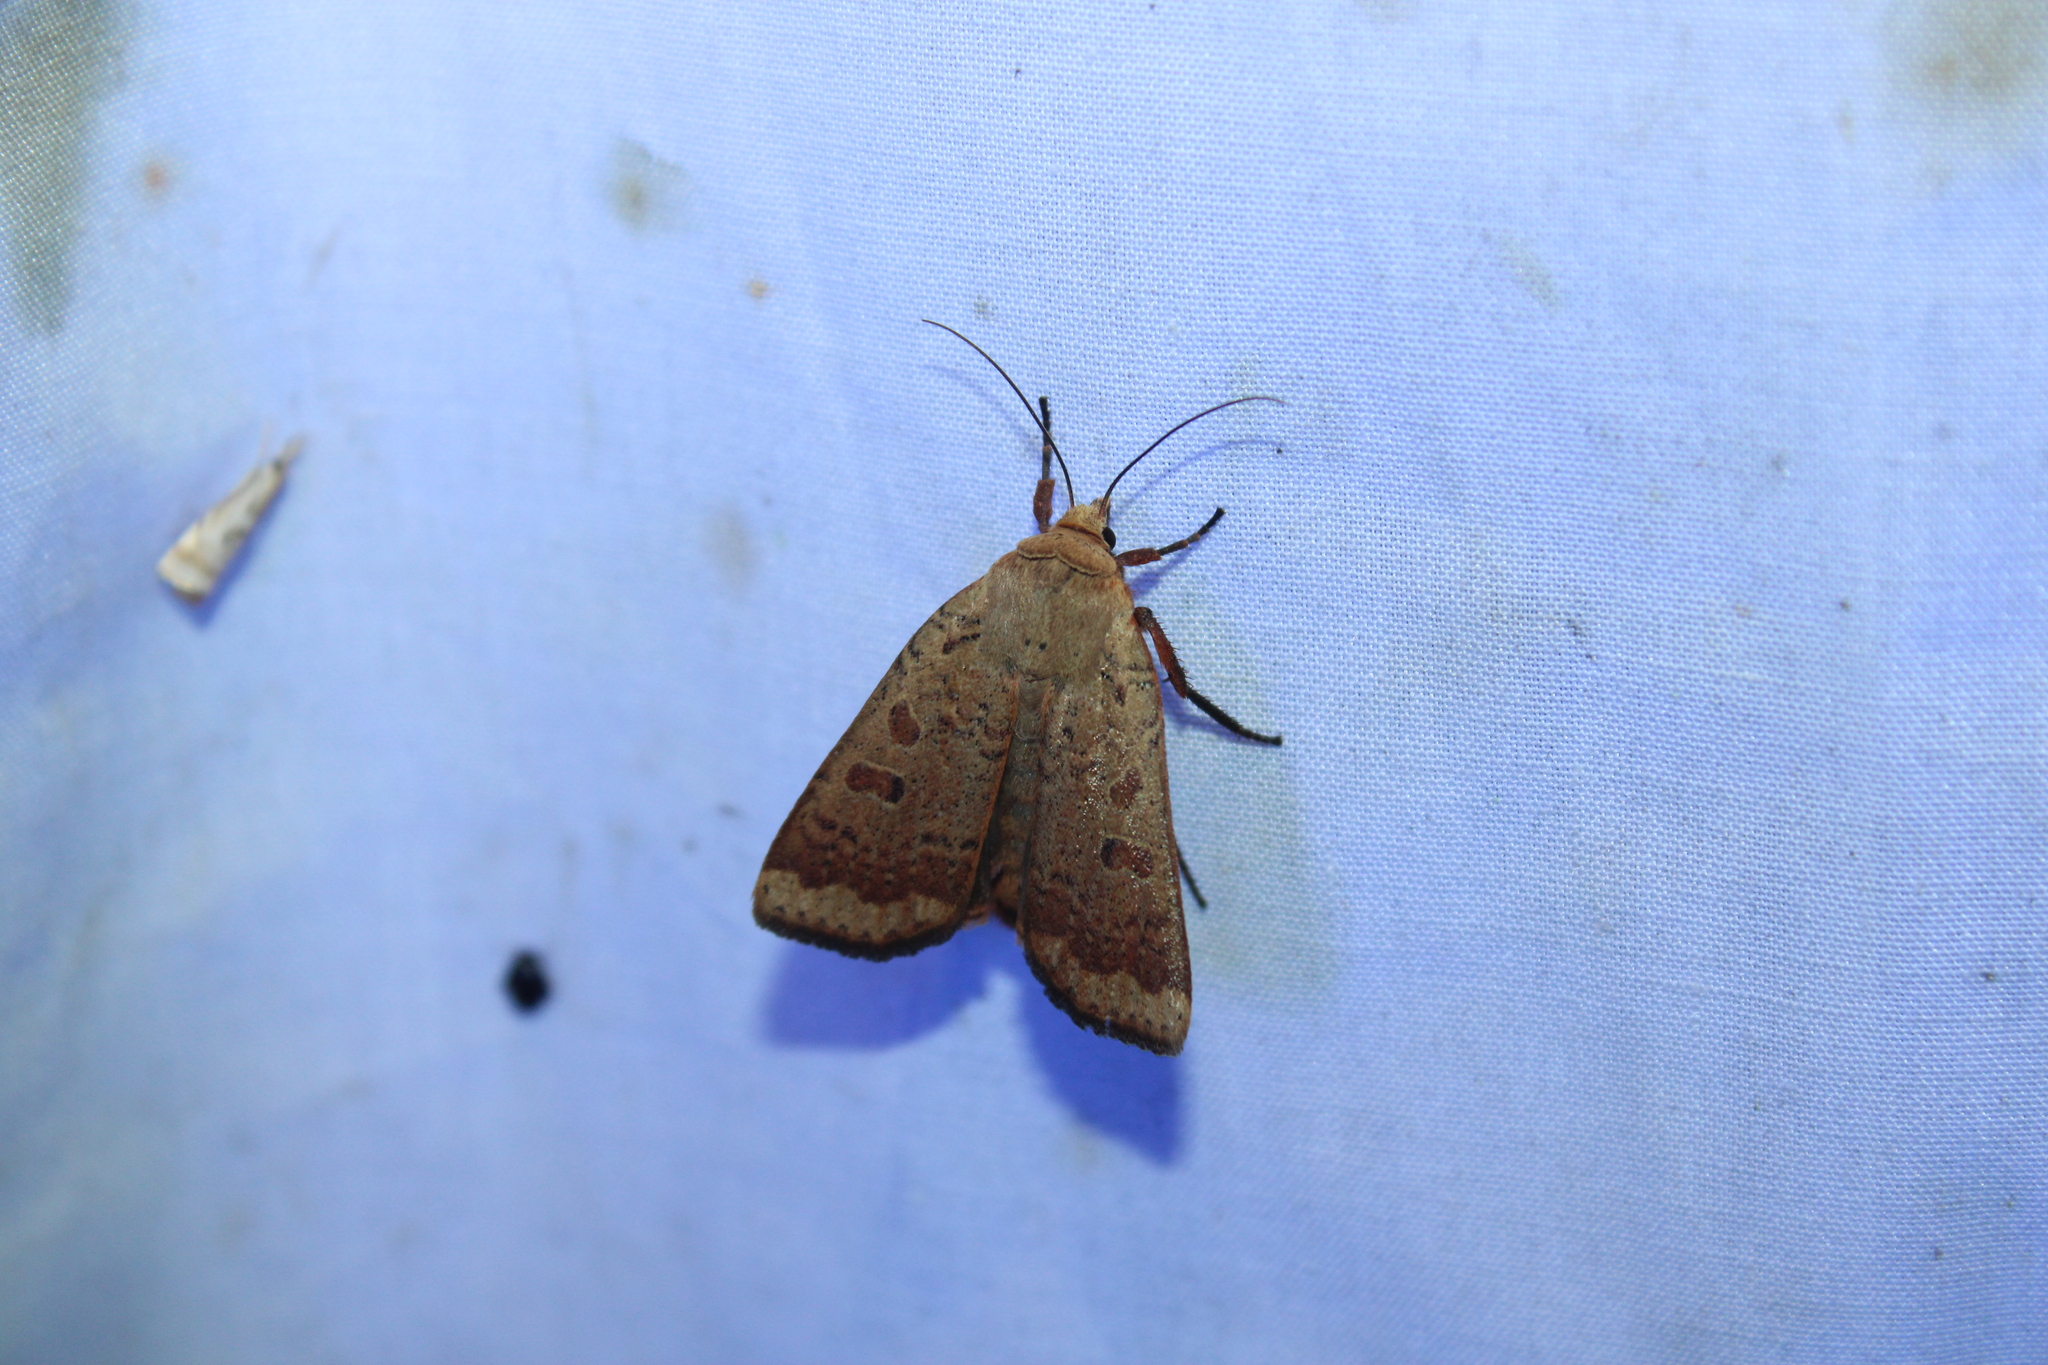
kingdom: Animalia
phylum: Arthropoda
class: Insecta
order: Lepidoptera
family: Noctuidae
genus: Abagrotis
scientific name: Abagrotis alternata
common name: Greater red dart
